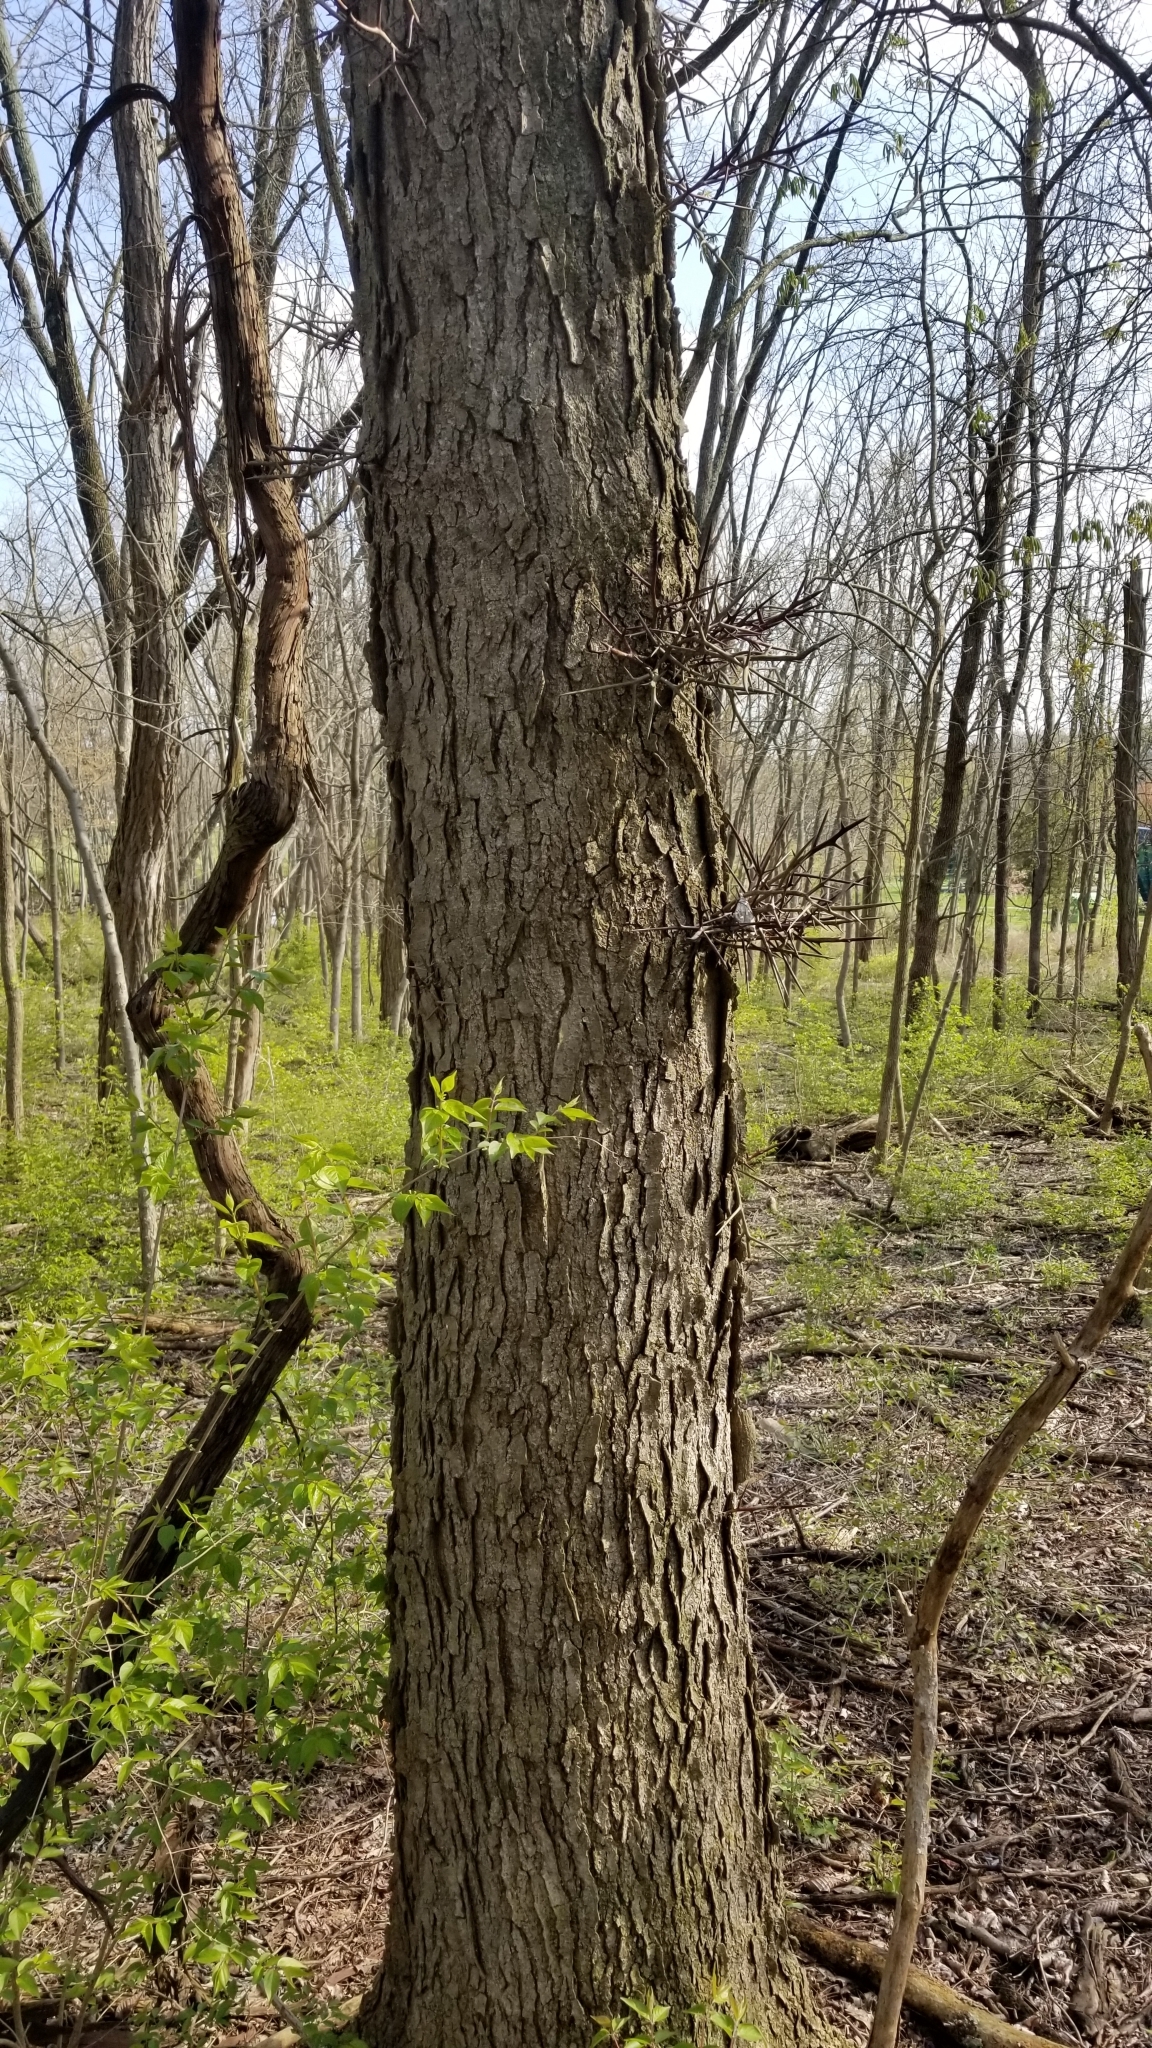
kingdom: Plantae
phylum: Tracheophyta
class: Magnoliopsida
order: Fabales
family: Fabaceae
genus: Gleditsia
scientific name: Gleditsia triacanthos
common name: Common honeylocust
